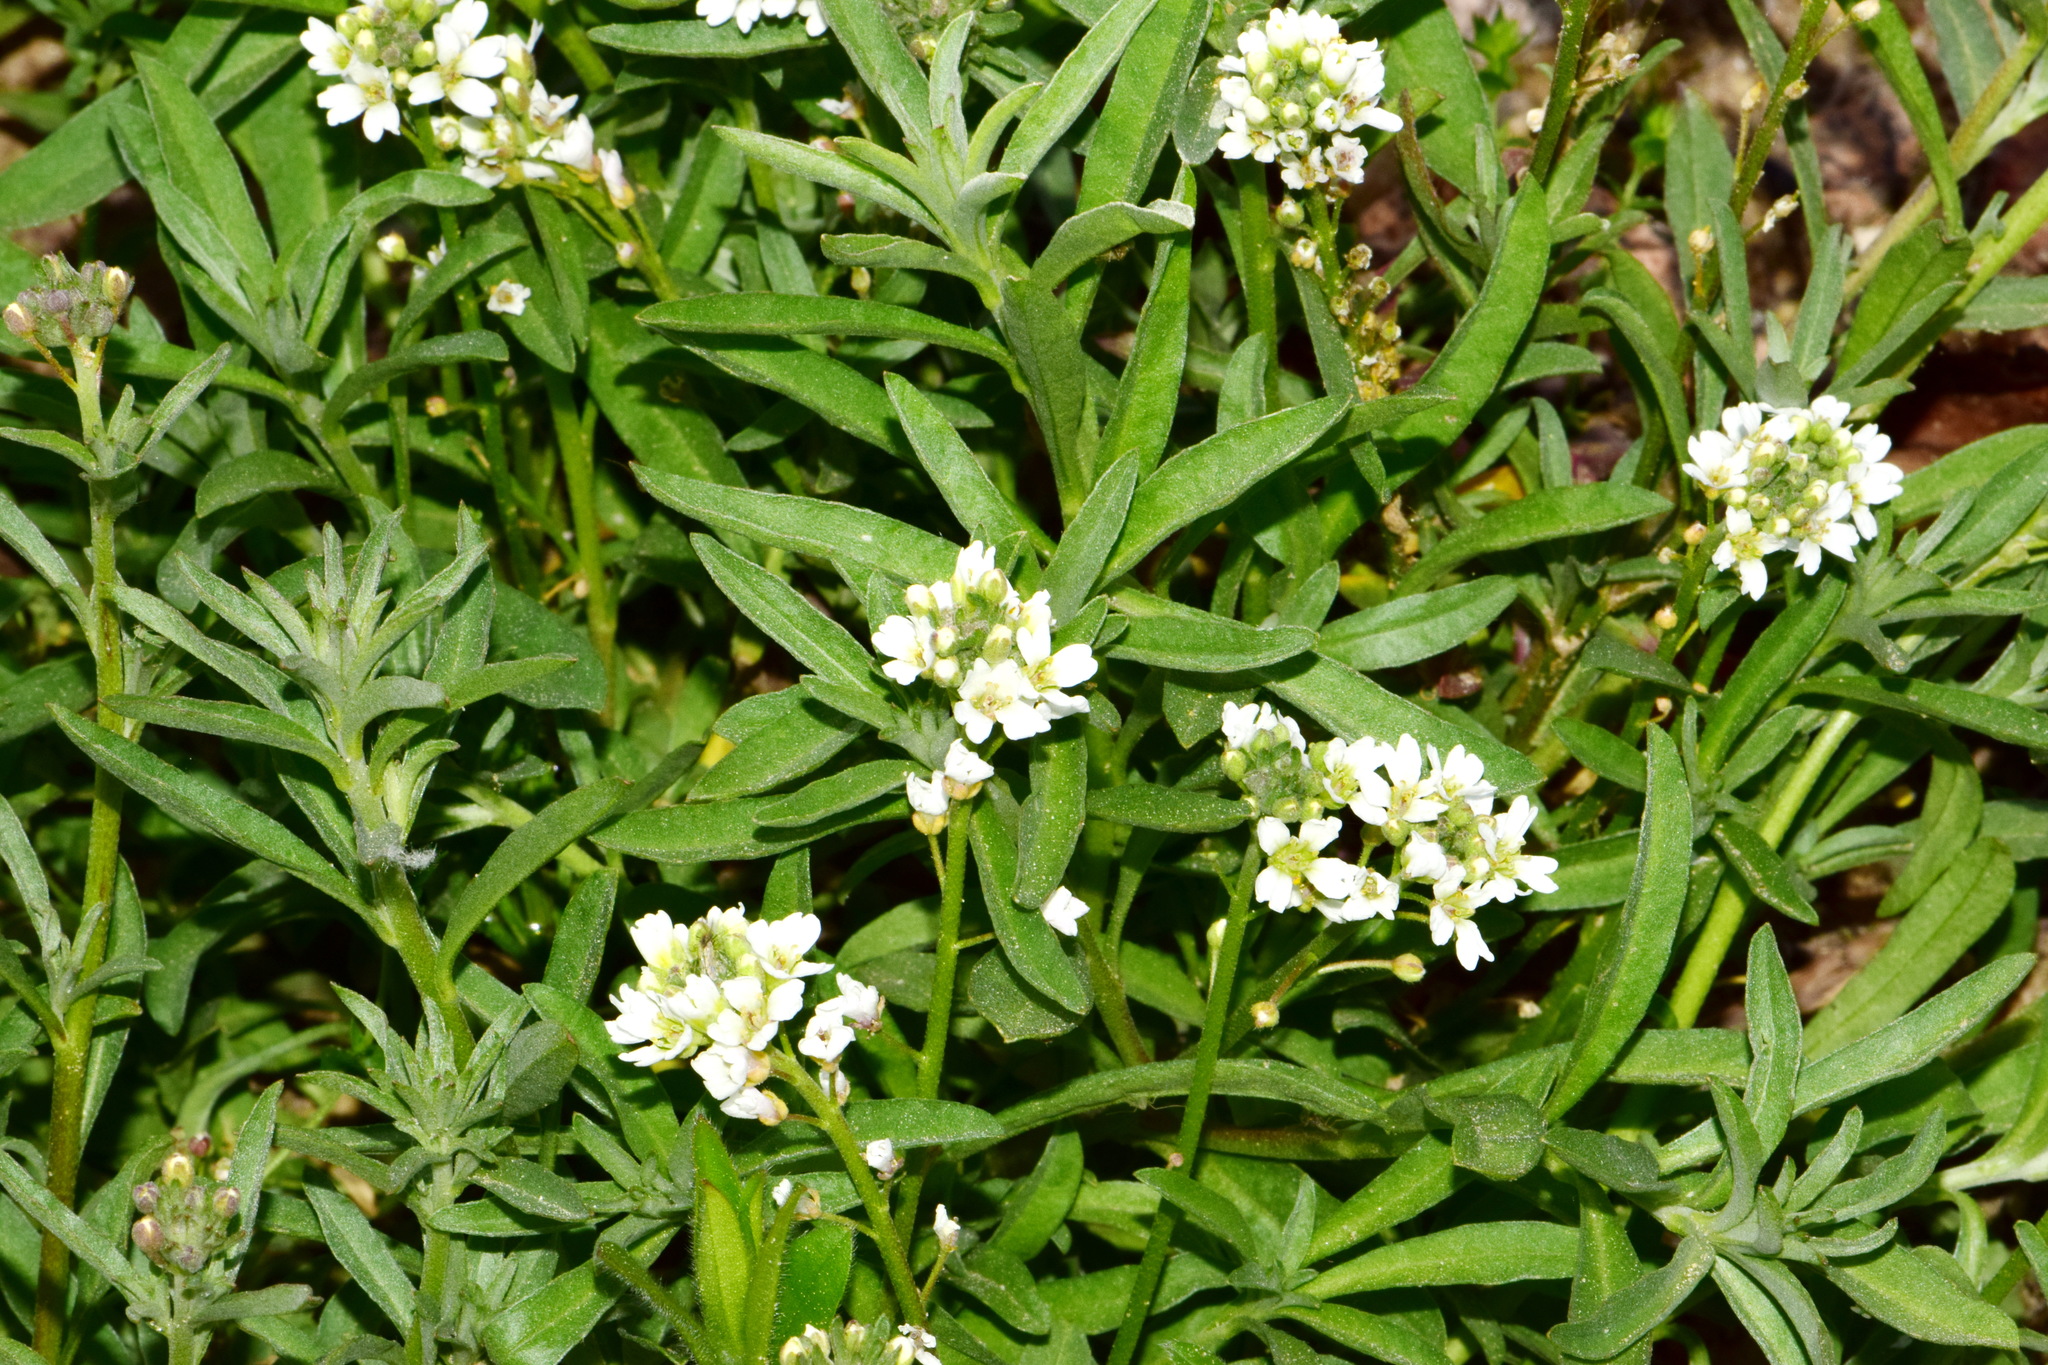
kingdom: Plantae
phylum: Tracheophyta
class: Magnoliopsida
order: Brassicales
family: Brassicaceae
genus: Berteroa
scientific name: Berteroa incana
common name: Hoary alison
